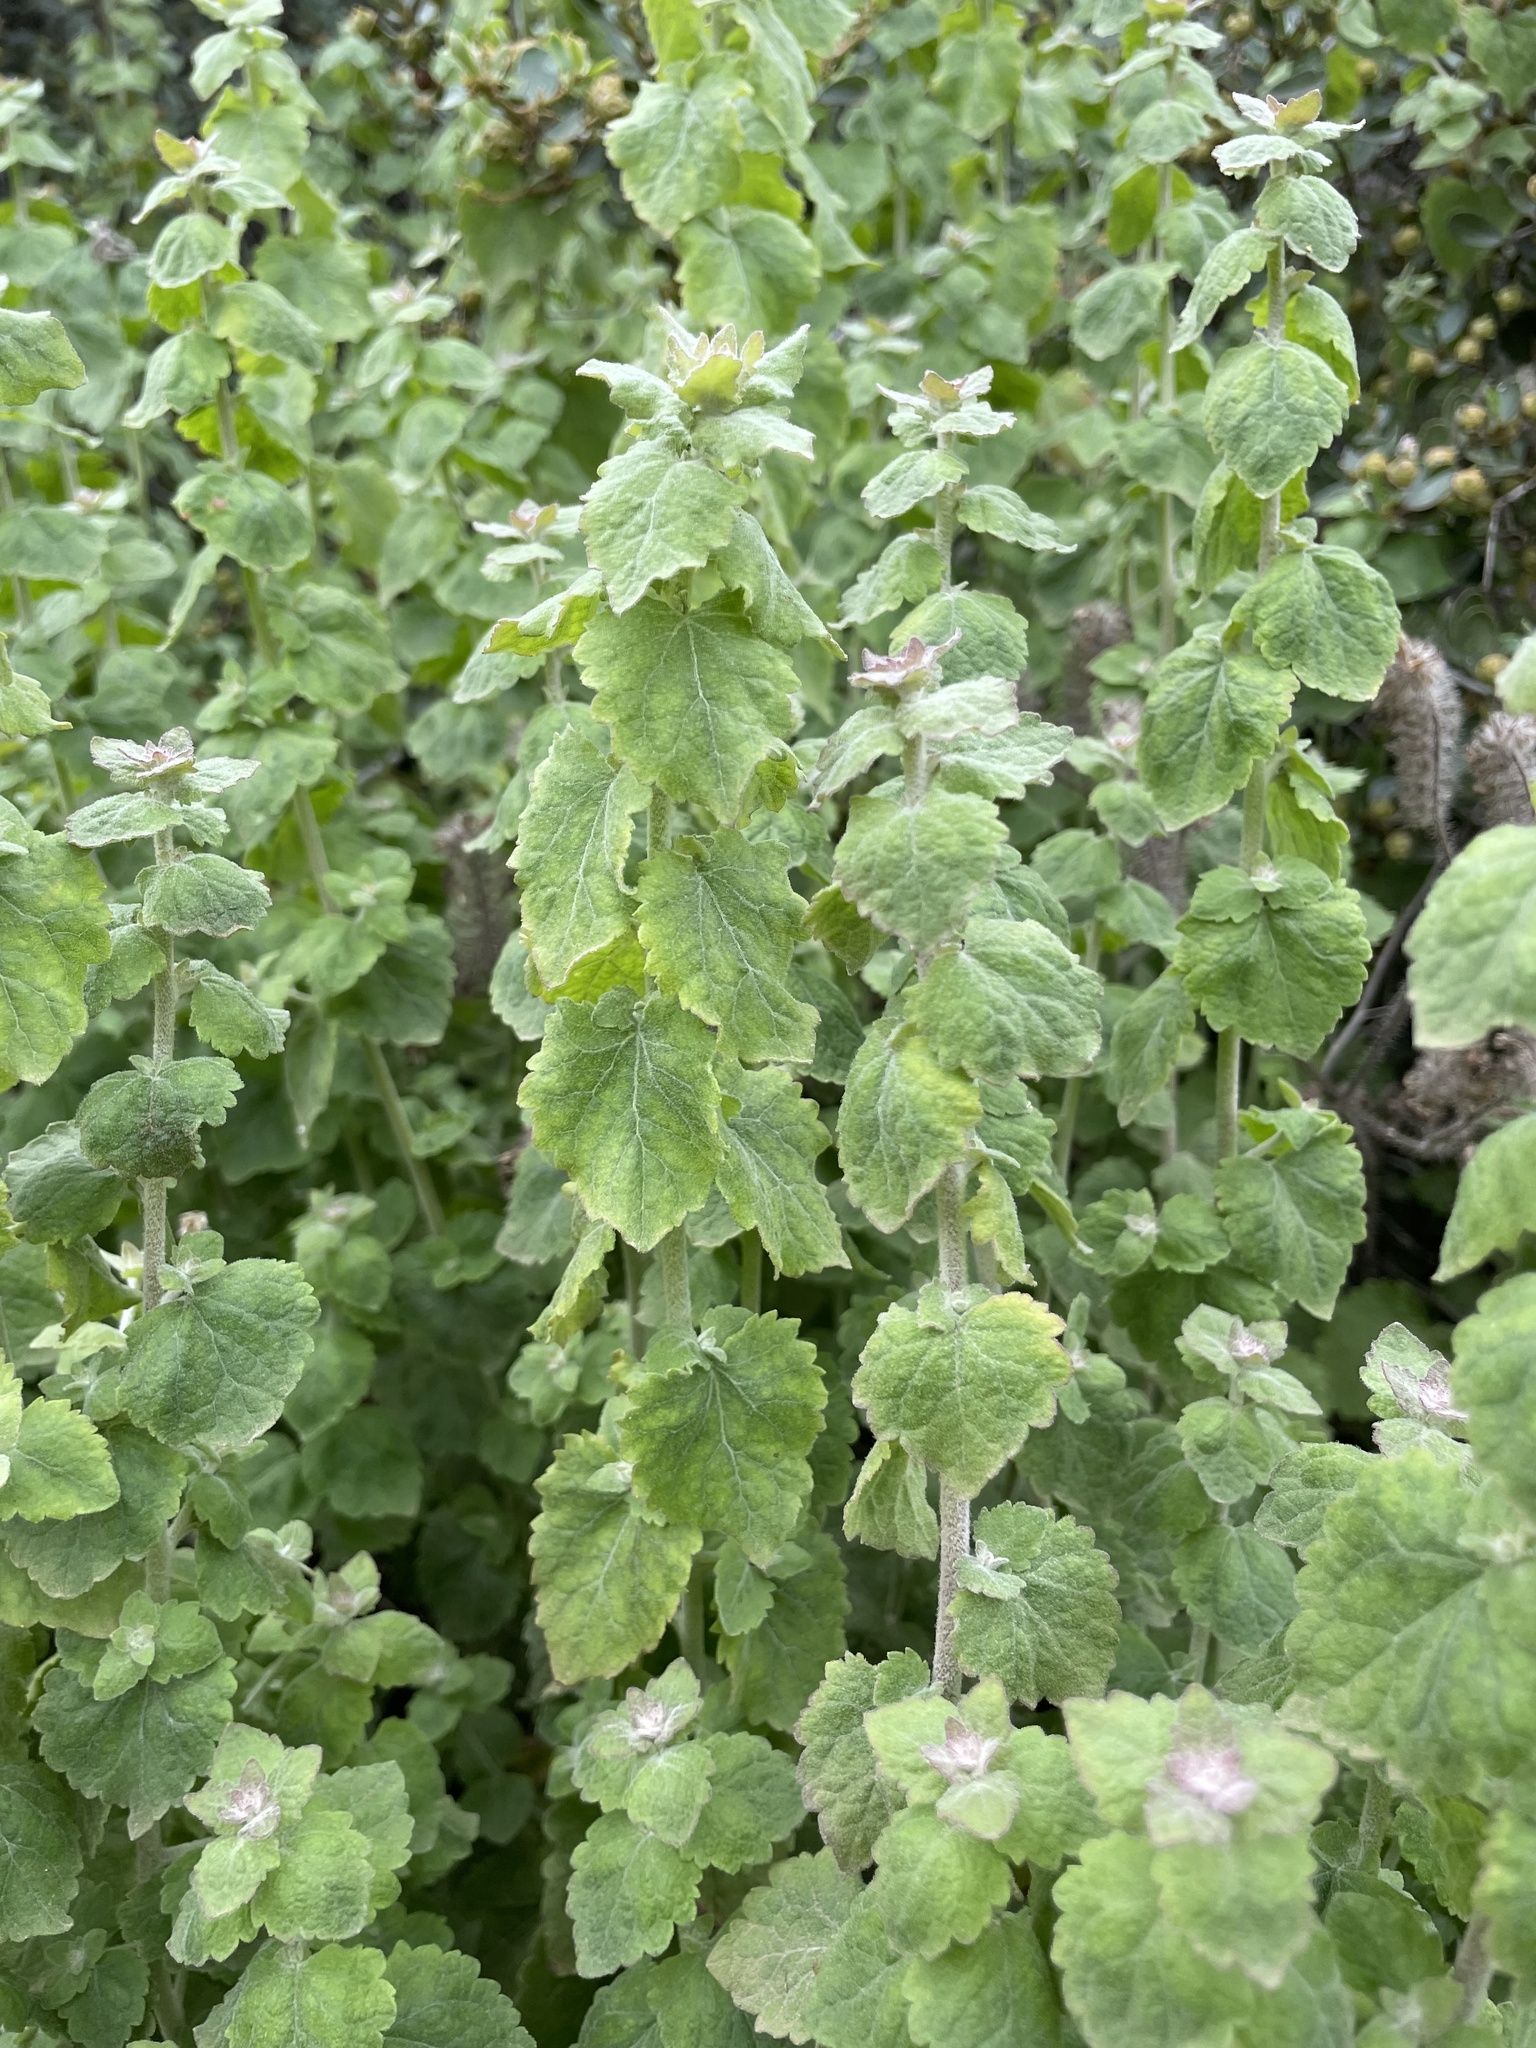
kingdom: Plantae
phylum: Tracheophyta
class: Magnoliopsida
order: Asterales
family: Asteraceae
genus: Brickellia
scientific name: Brickellia californica
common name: California brickellbush
